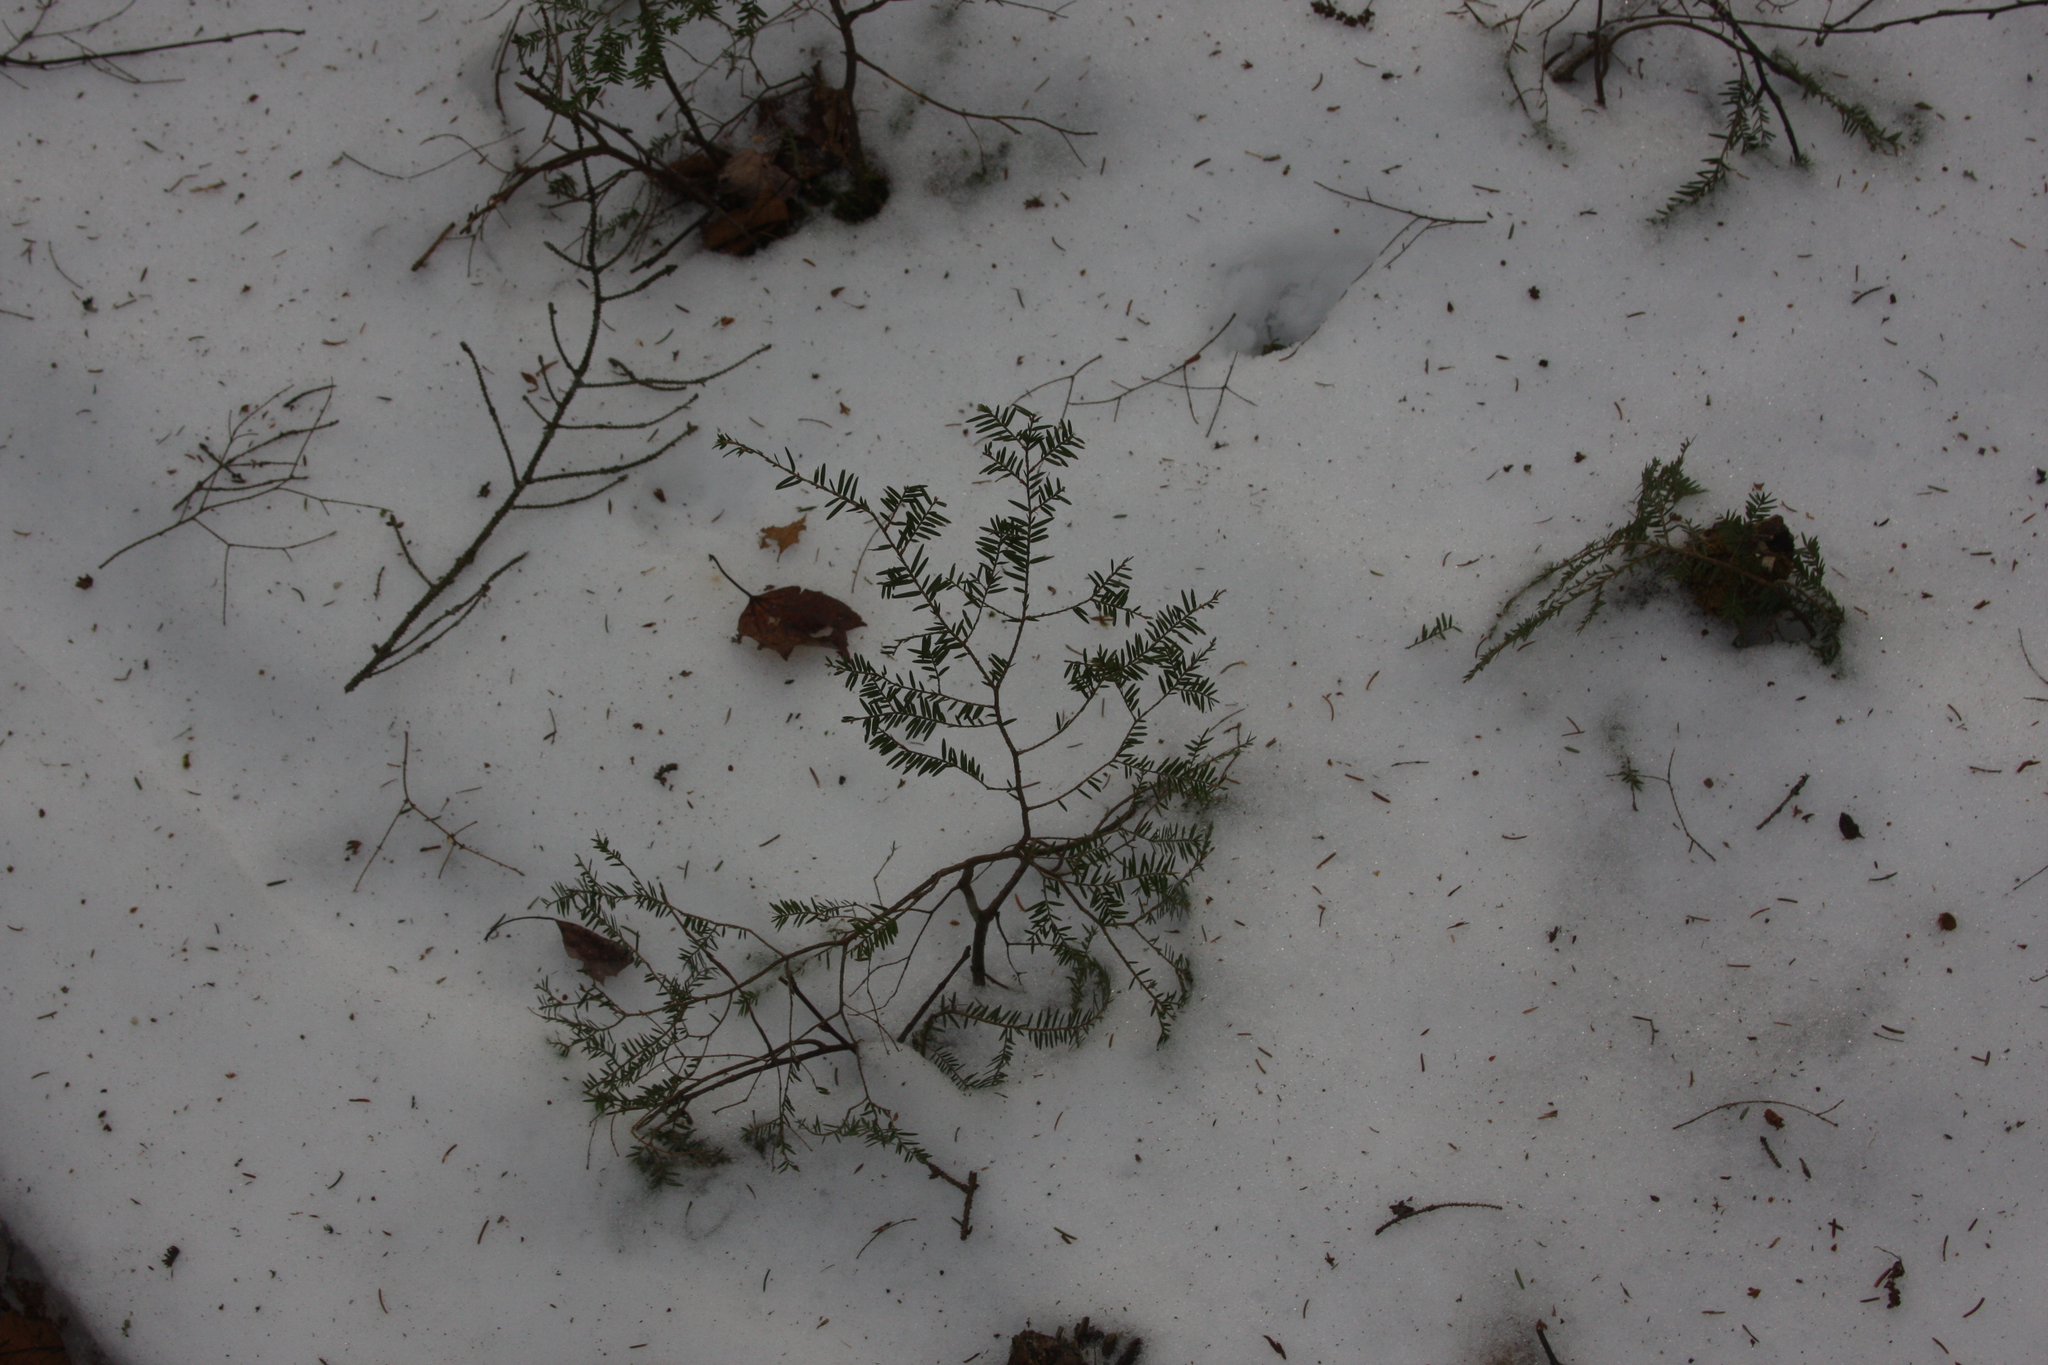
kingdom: Plantae
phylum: Tracheophyta
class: Pinopsida
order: Pinales
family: Pinaceae
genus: Tsuga
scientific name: Tsuga canadensis
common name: Eastern hemlock
